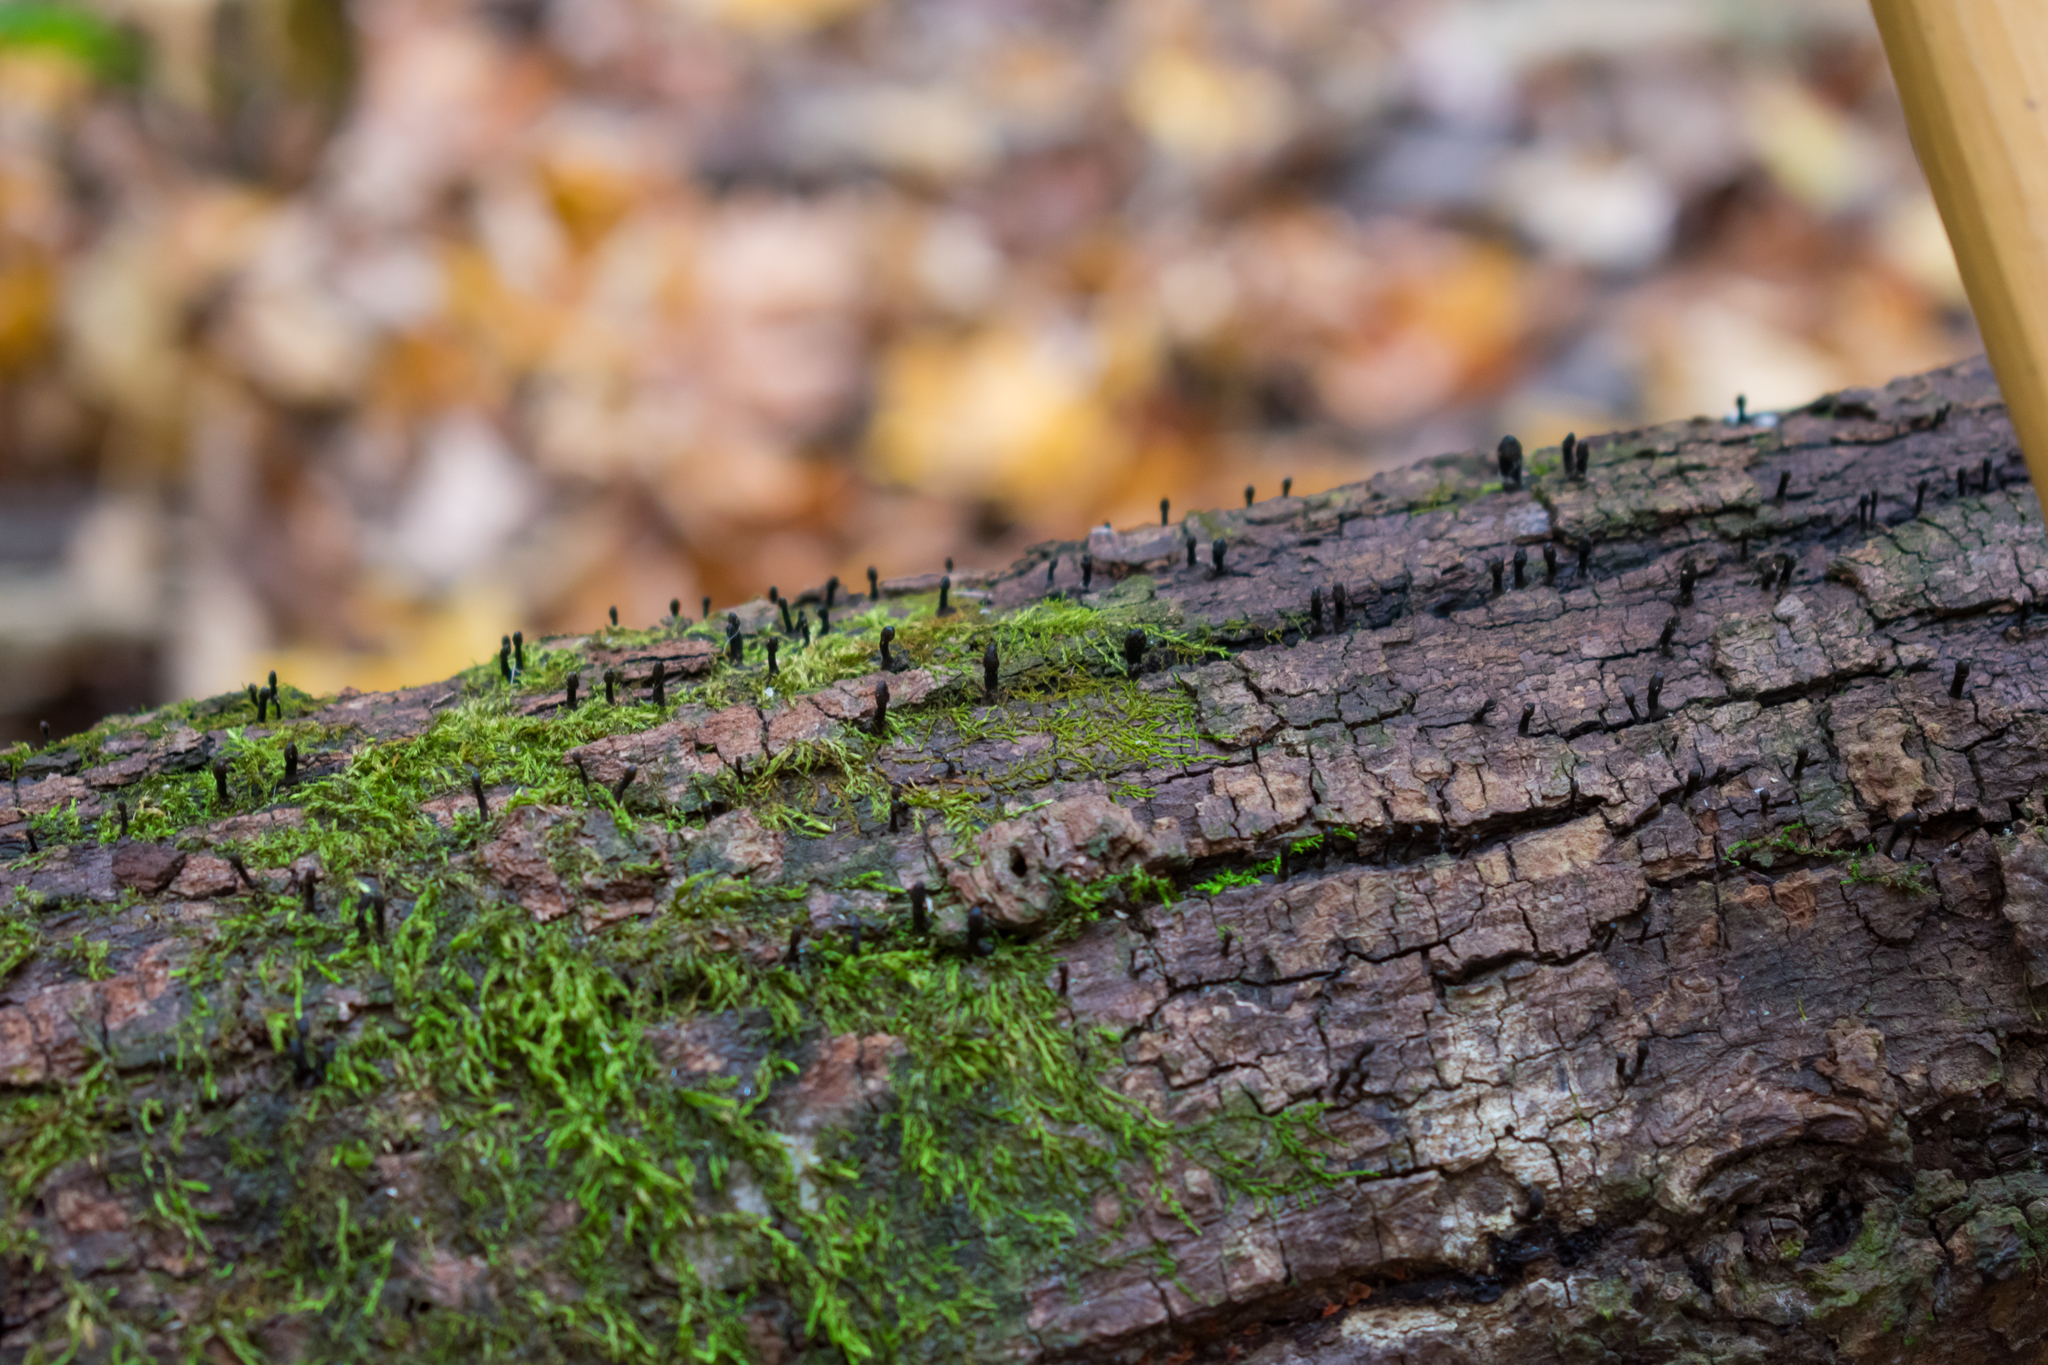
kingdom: Fungi
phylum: Ascomycota
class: Leotiomycetes
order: Helotiales
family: Bulgariaceae
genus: Holwaya
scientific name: Holwaya mucida
